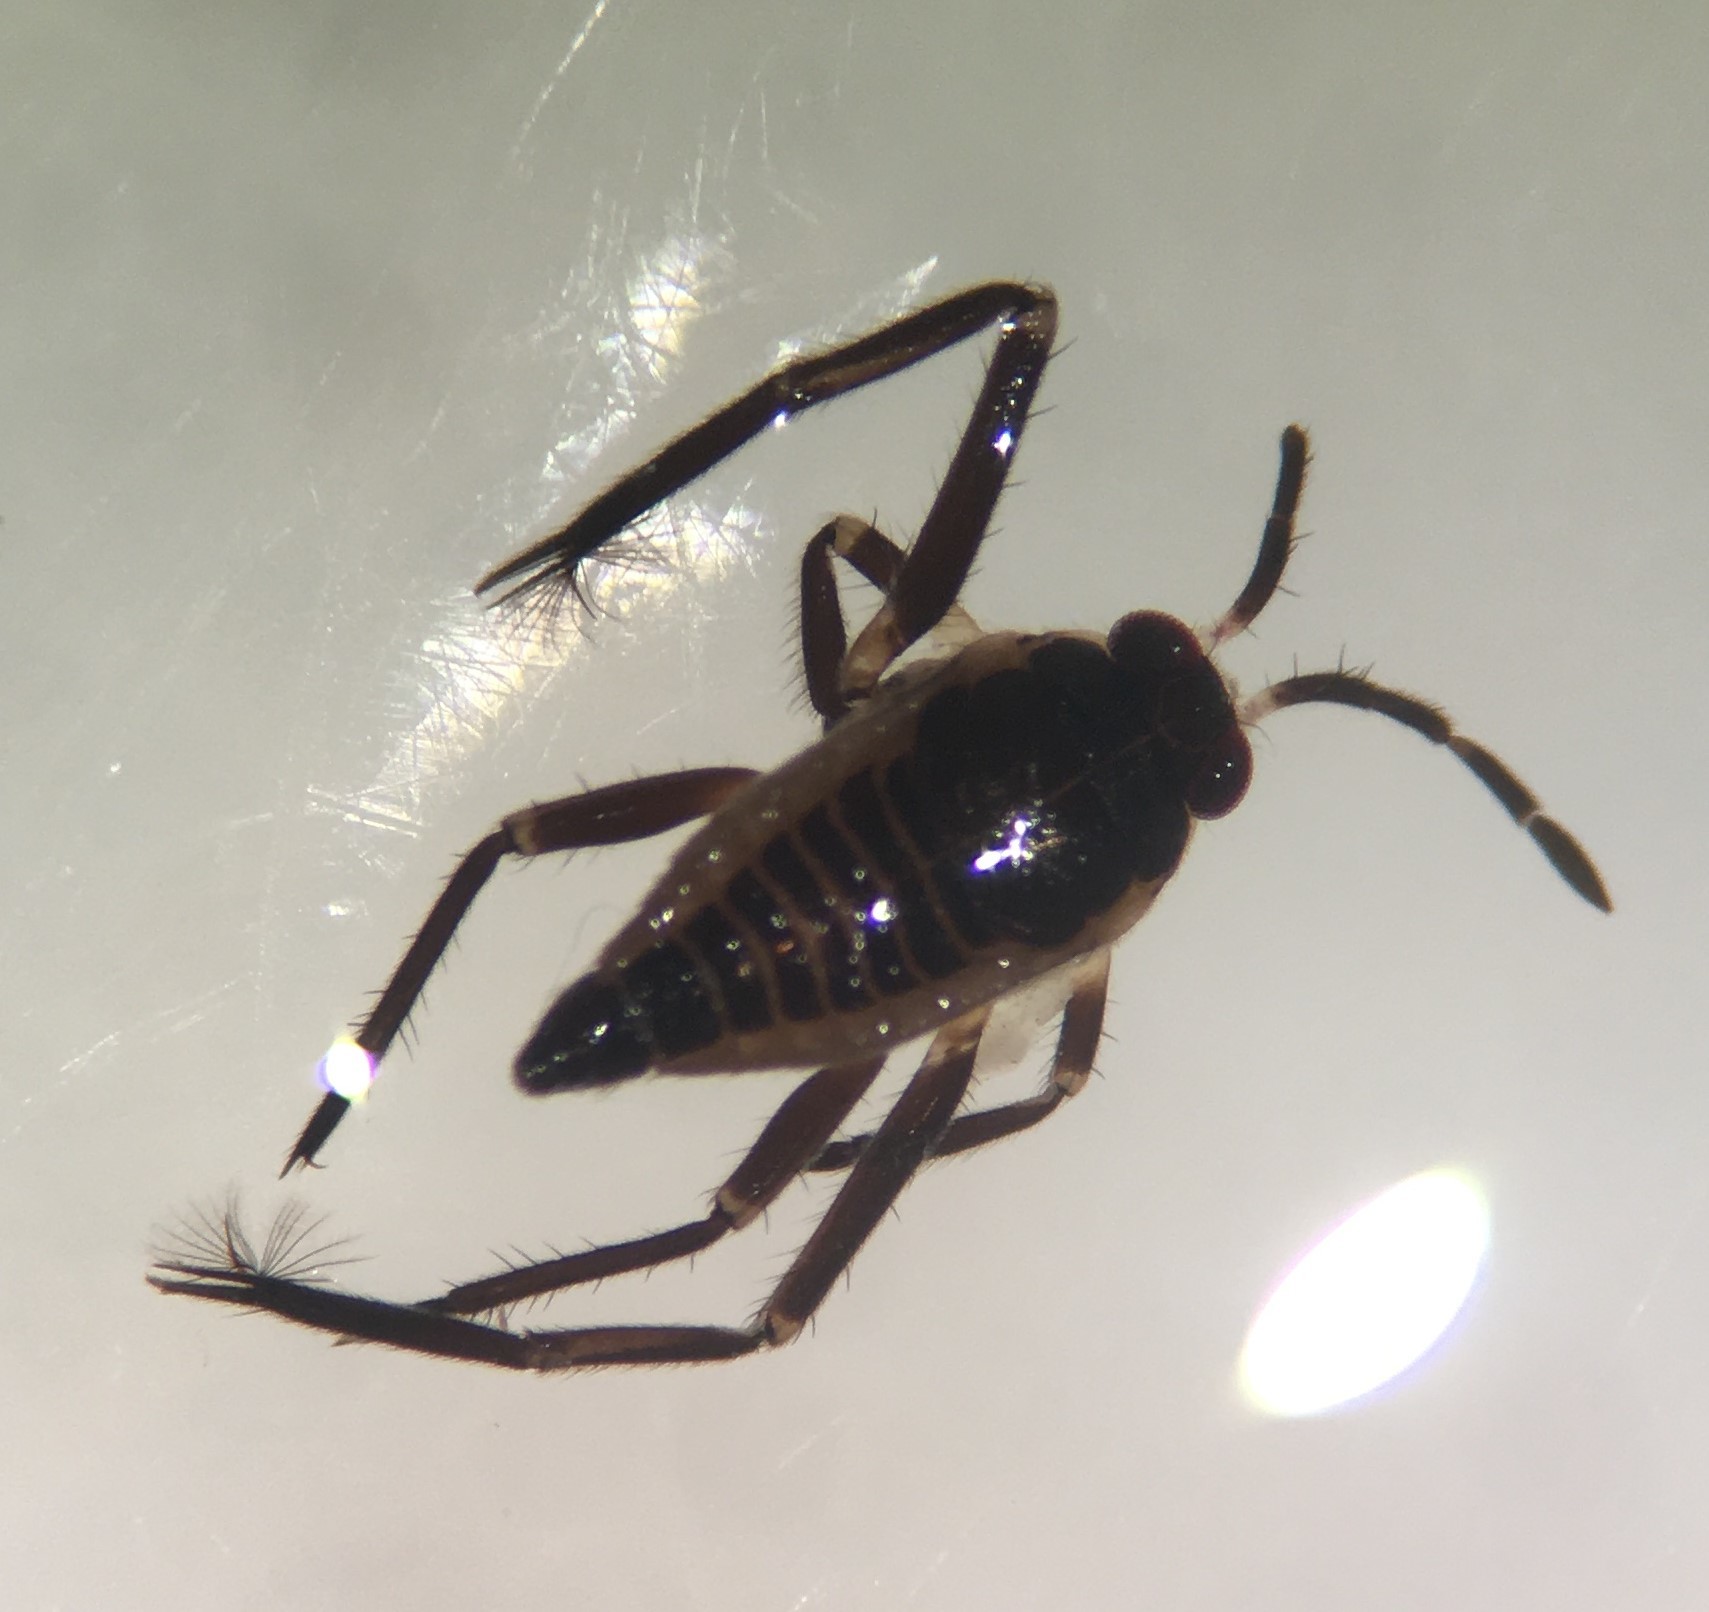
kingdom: Animalia
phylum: Arthropoda
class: Insecta
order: Hemiptera
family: Veliidae
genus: Rhagovelia
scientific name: Rhagovelia obesa
